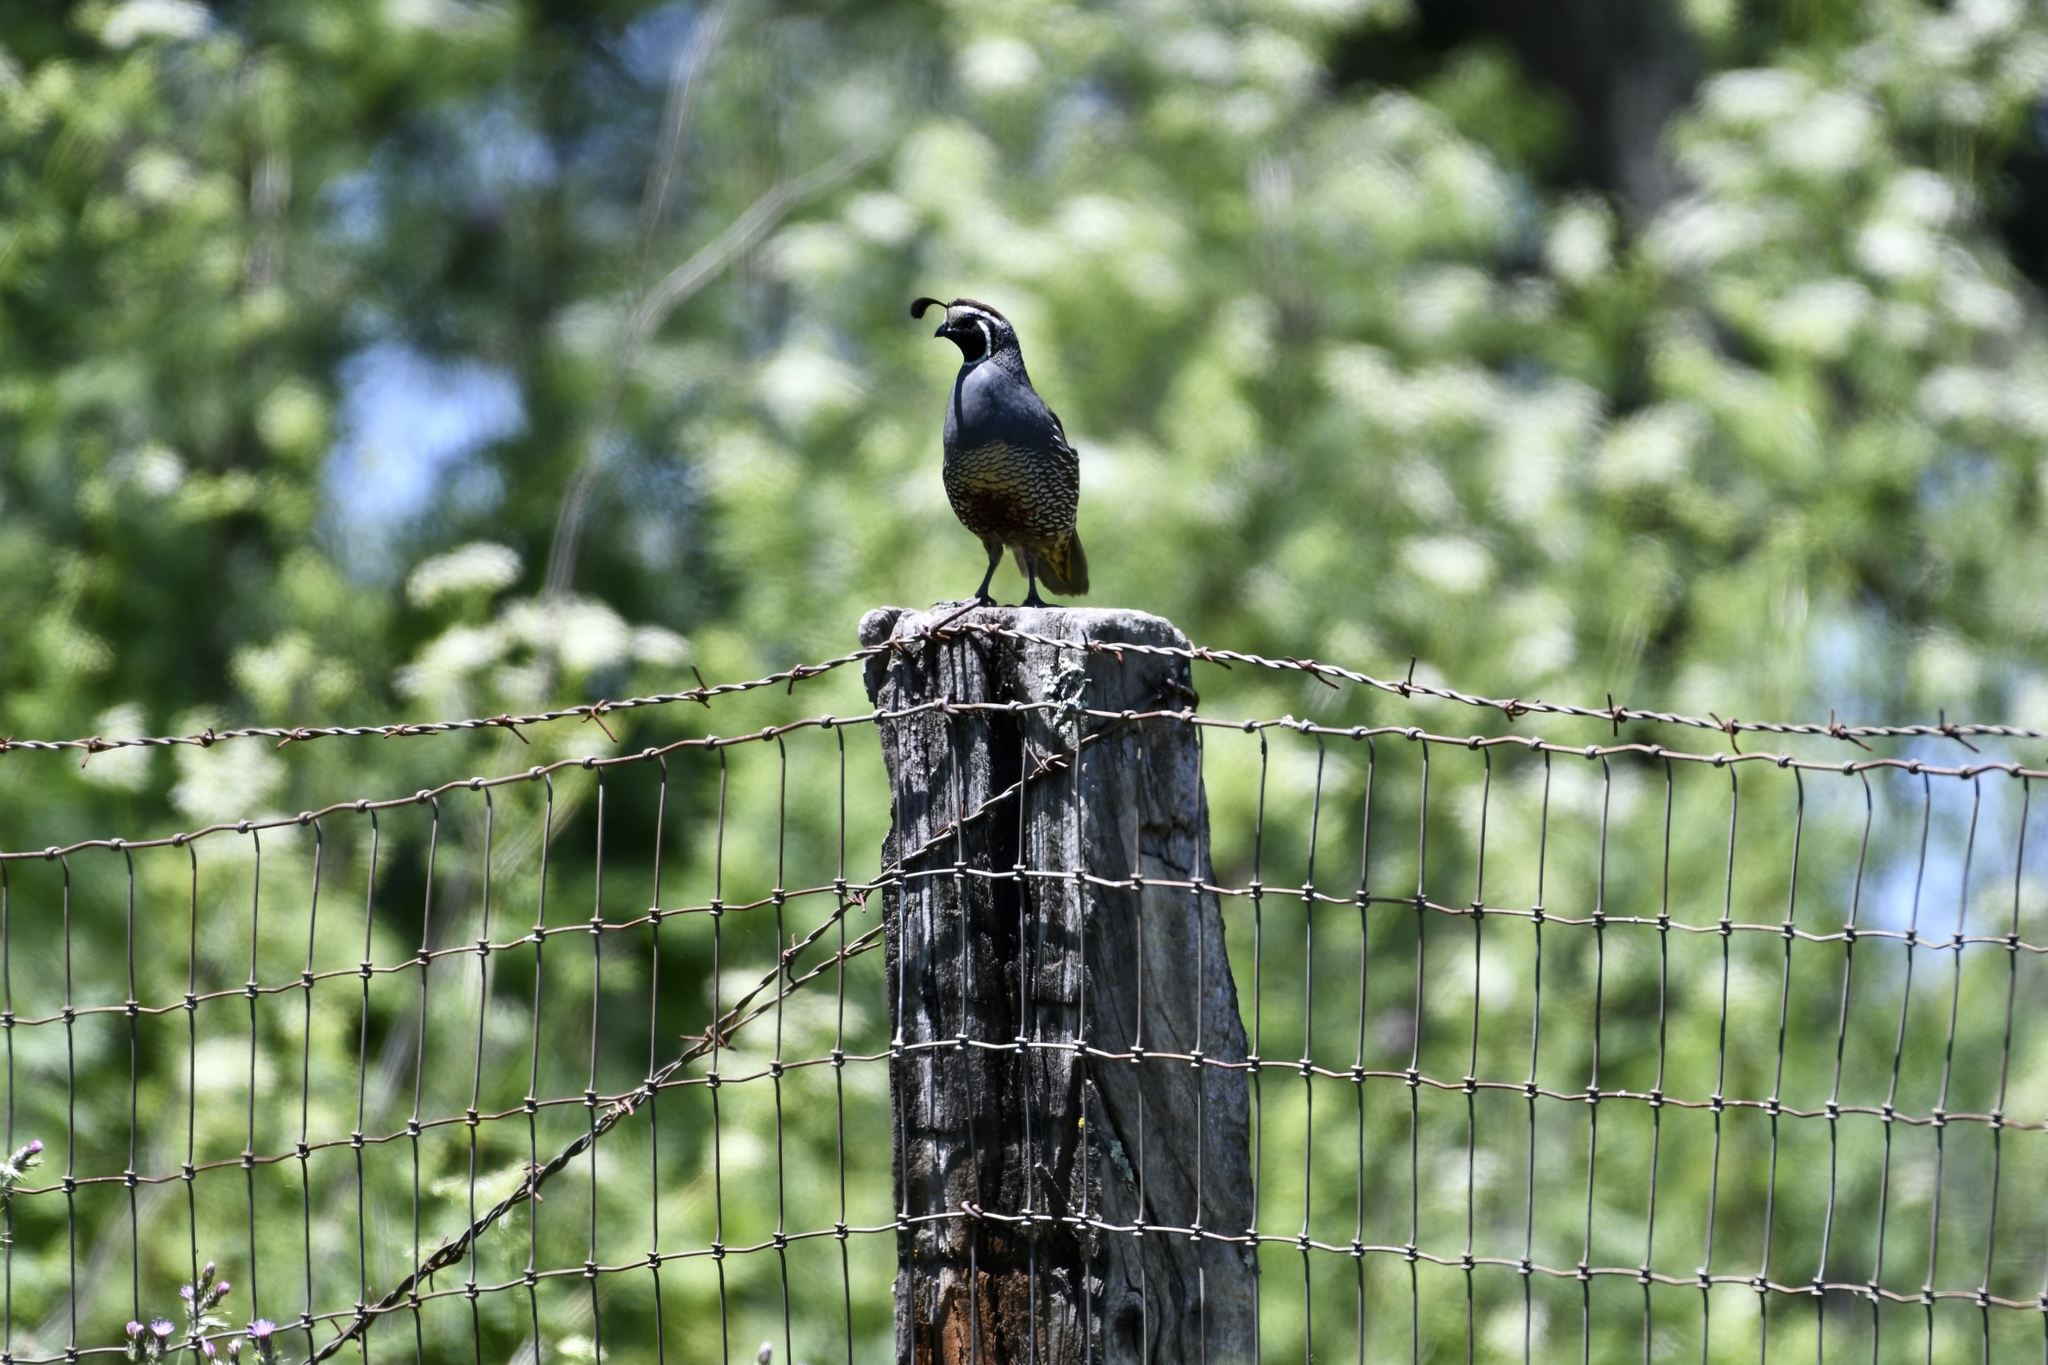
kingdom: Animalia
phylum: Chordata
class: Aves
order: Galliformes
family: Odontophoridae
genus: Callipepla
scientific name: Callipepla californica
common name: California quail
